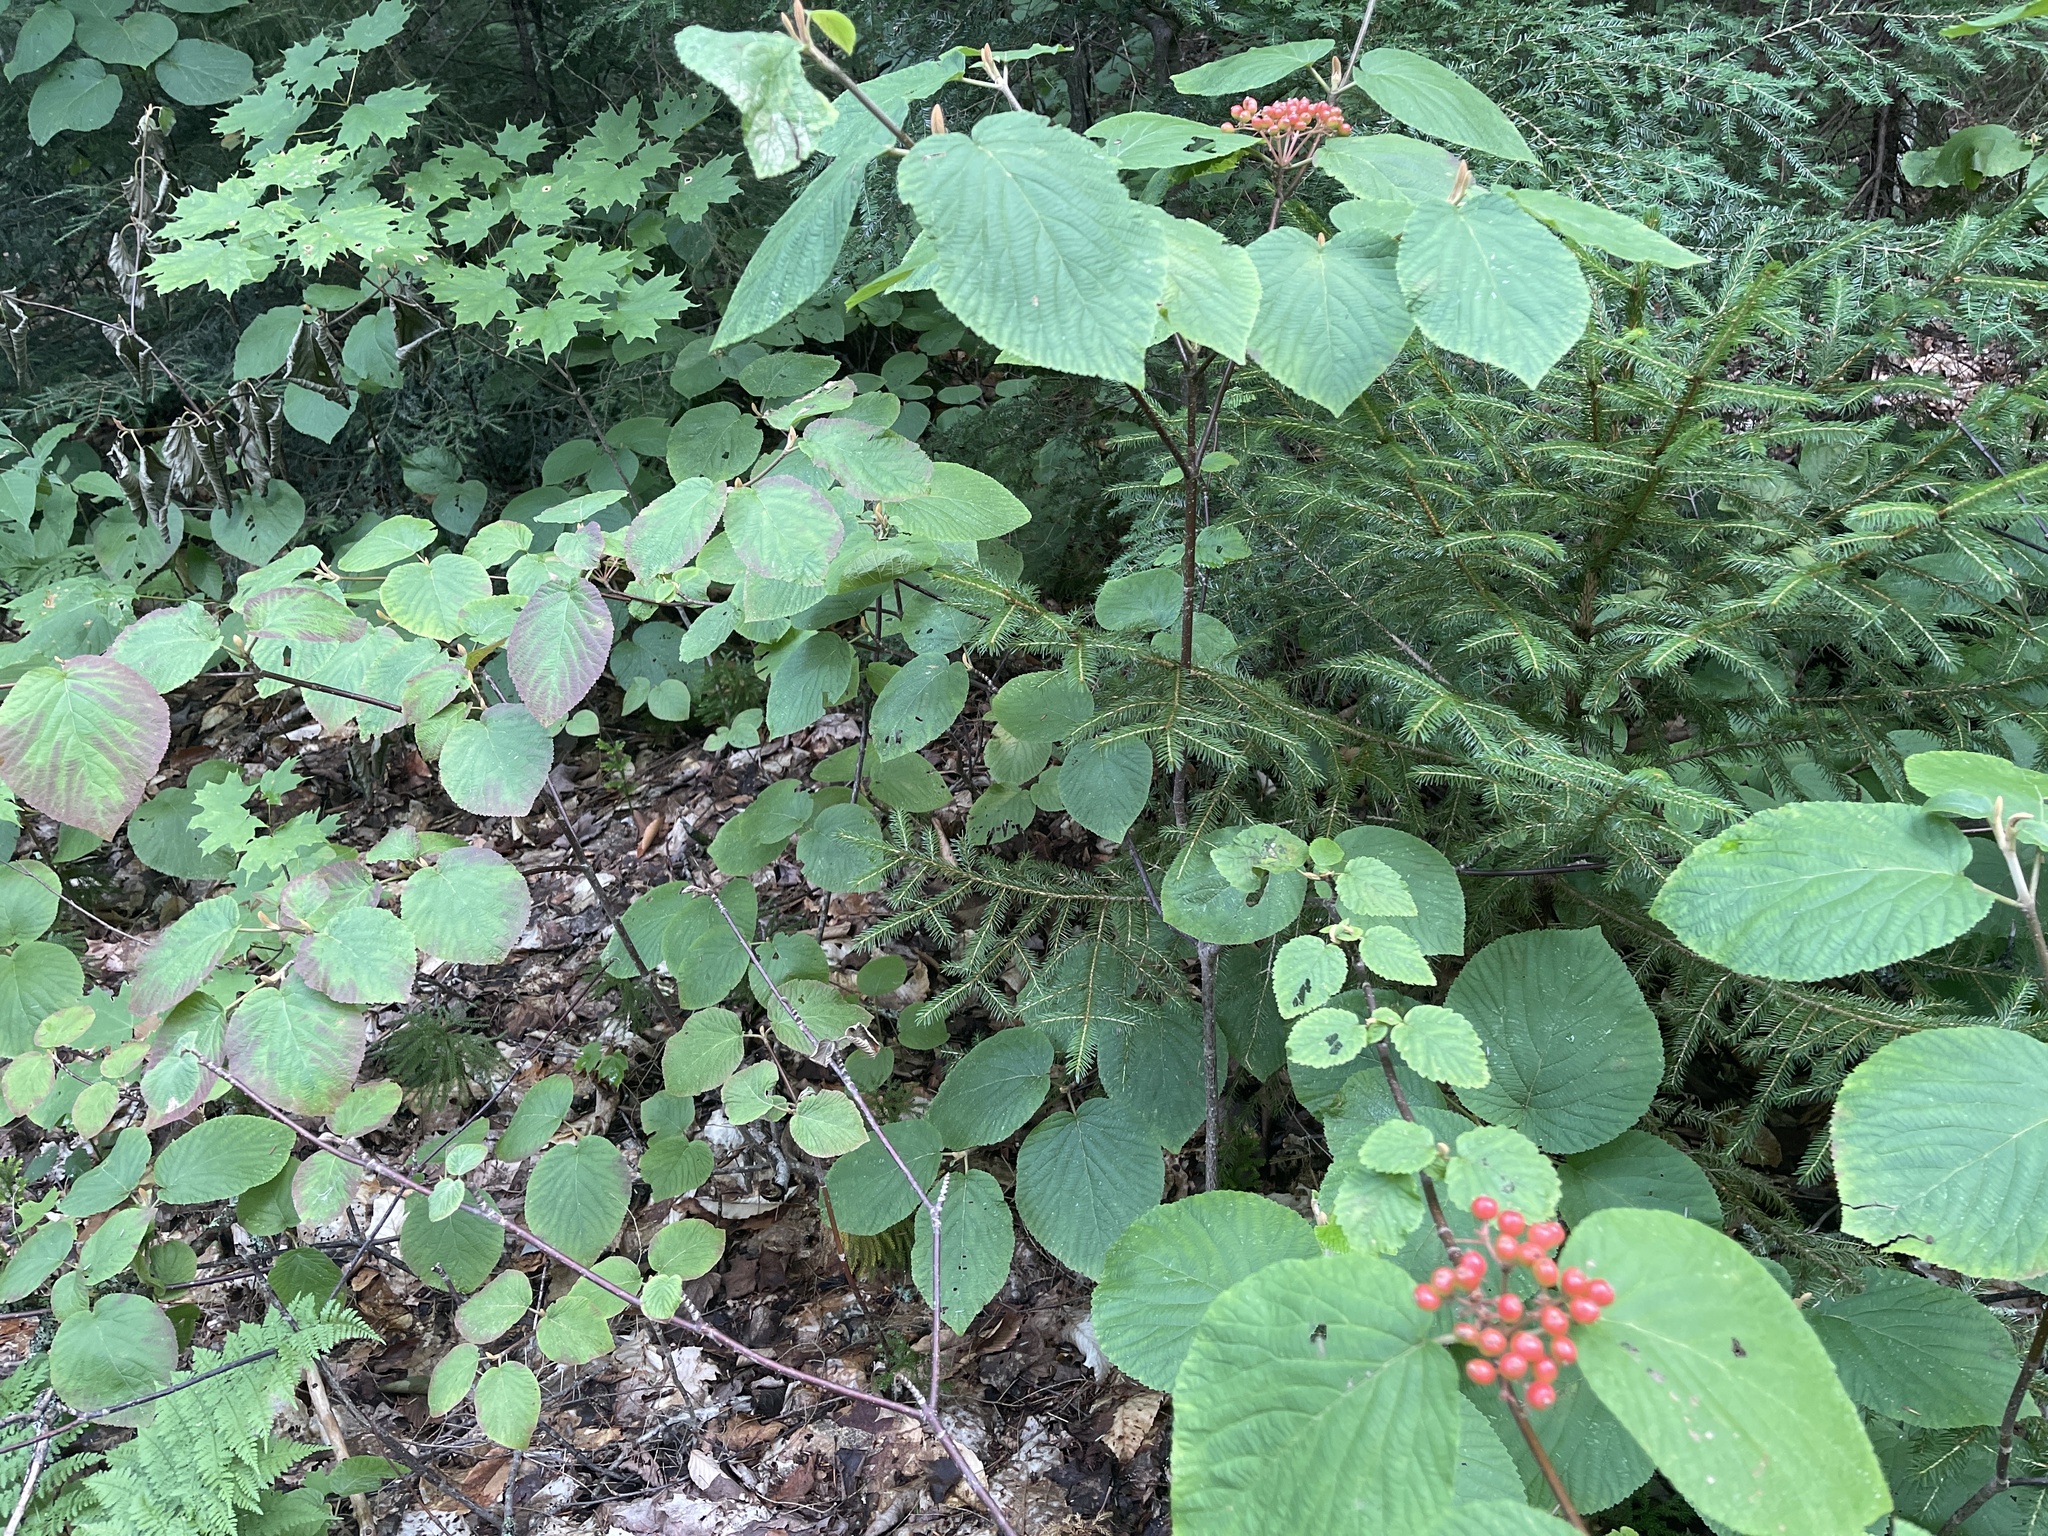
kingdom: Plantae
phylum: Tracheophyta
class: Magnoliopsida
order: Dipsacales
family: Viburnaceae
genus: Viburnum
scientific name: Viburnum lantanoides
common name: Hobblebush
